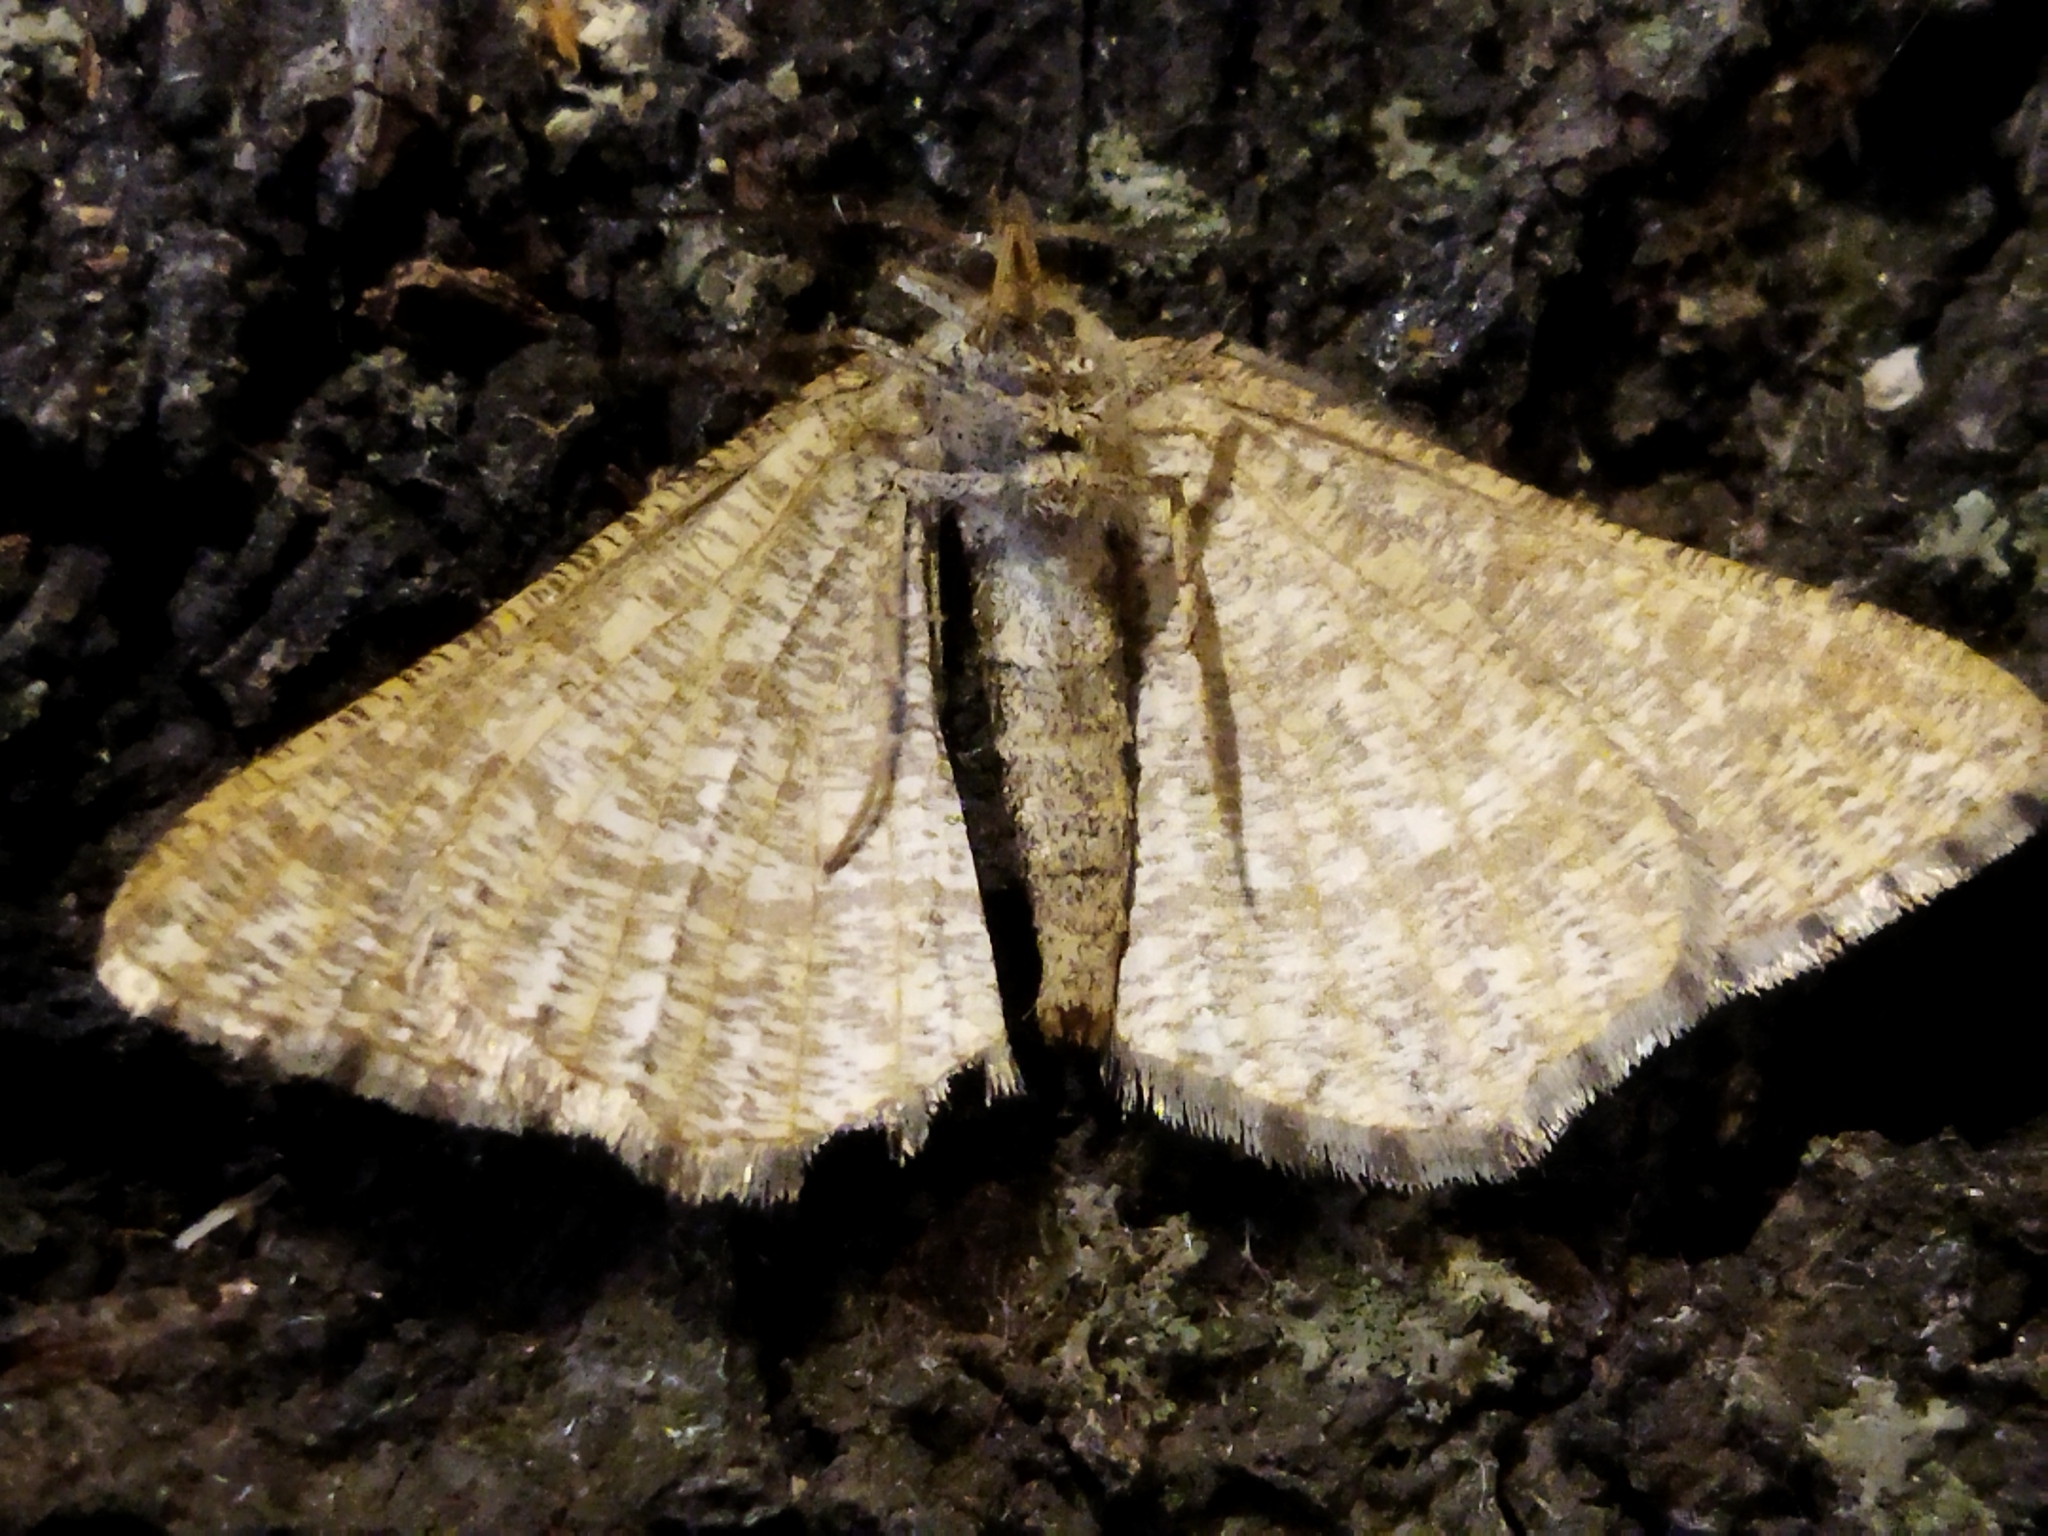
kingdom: Animalia
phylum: Arthropoda
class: Insecta
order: Lepidoptera
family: Geometridae
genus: Tephrina
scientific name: Tephrina murinaria
